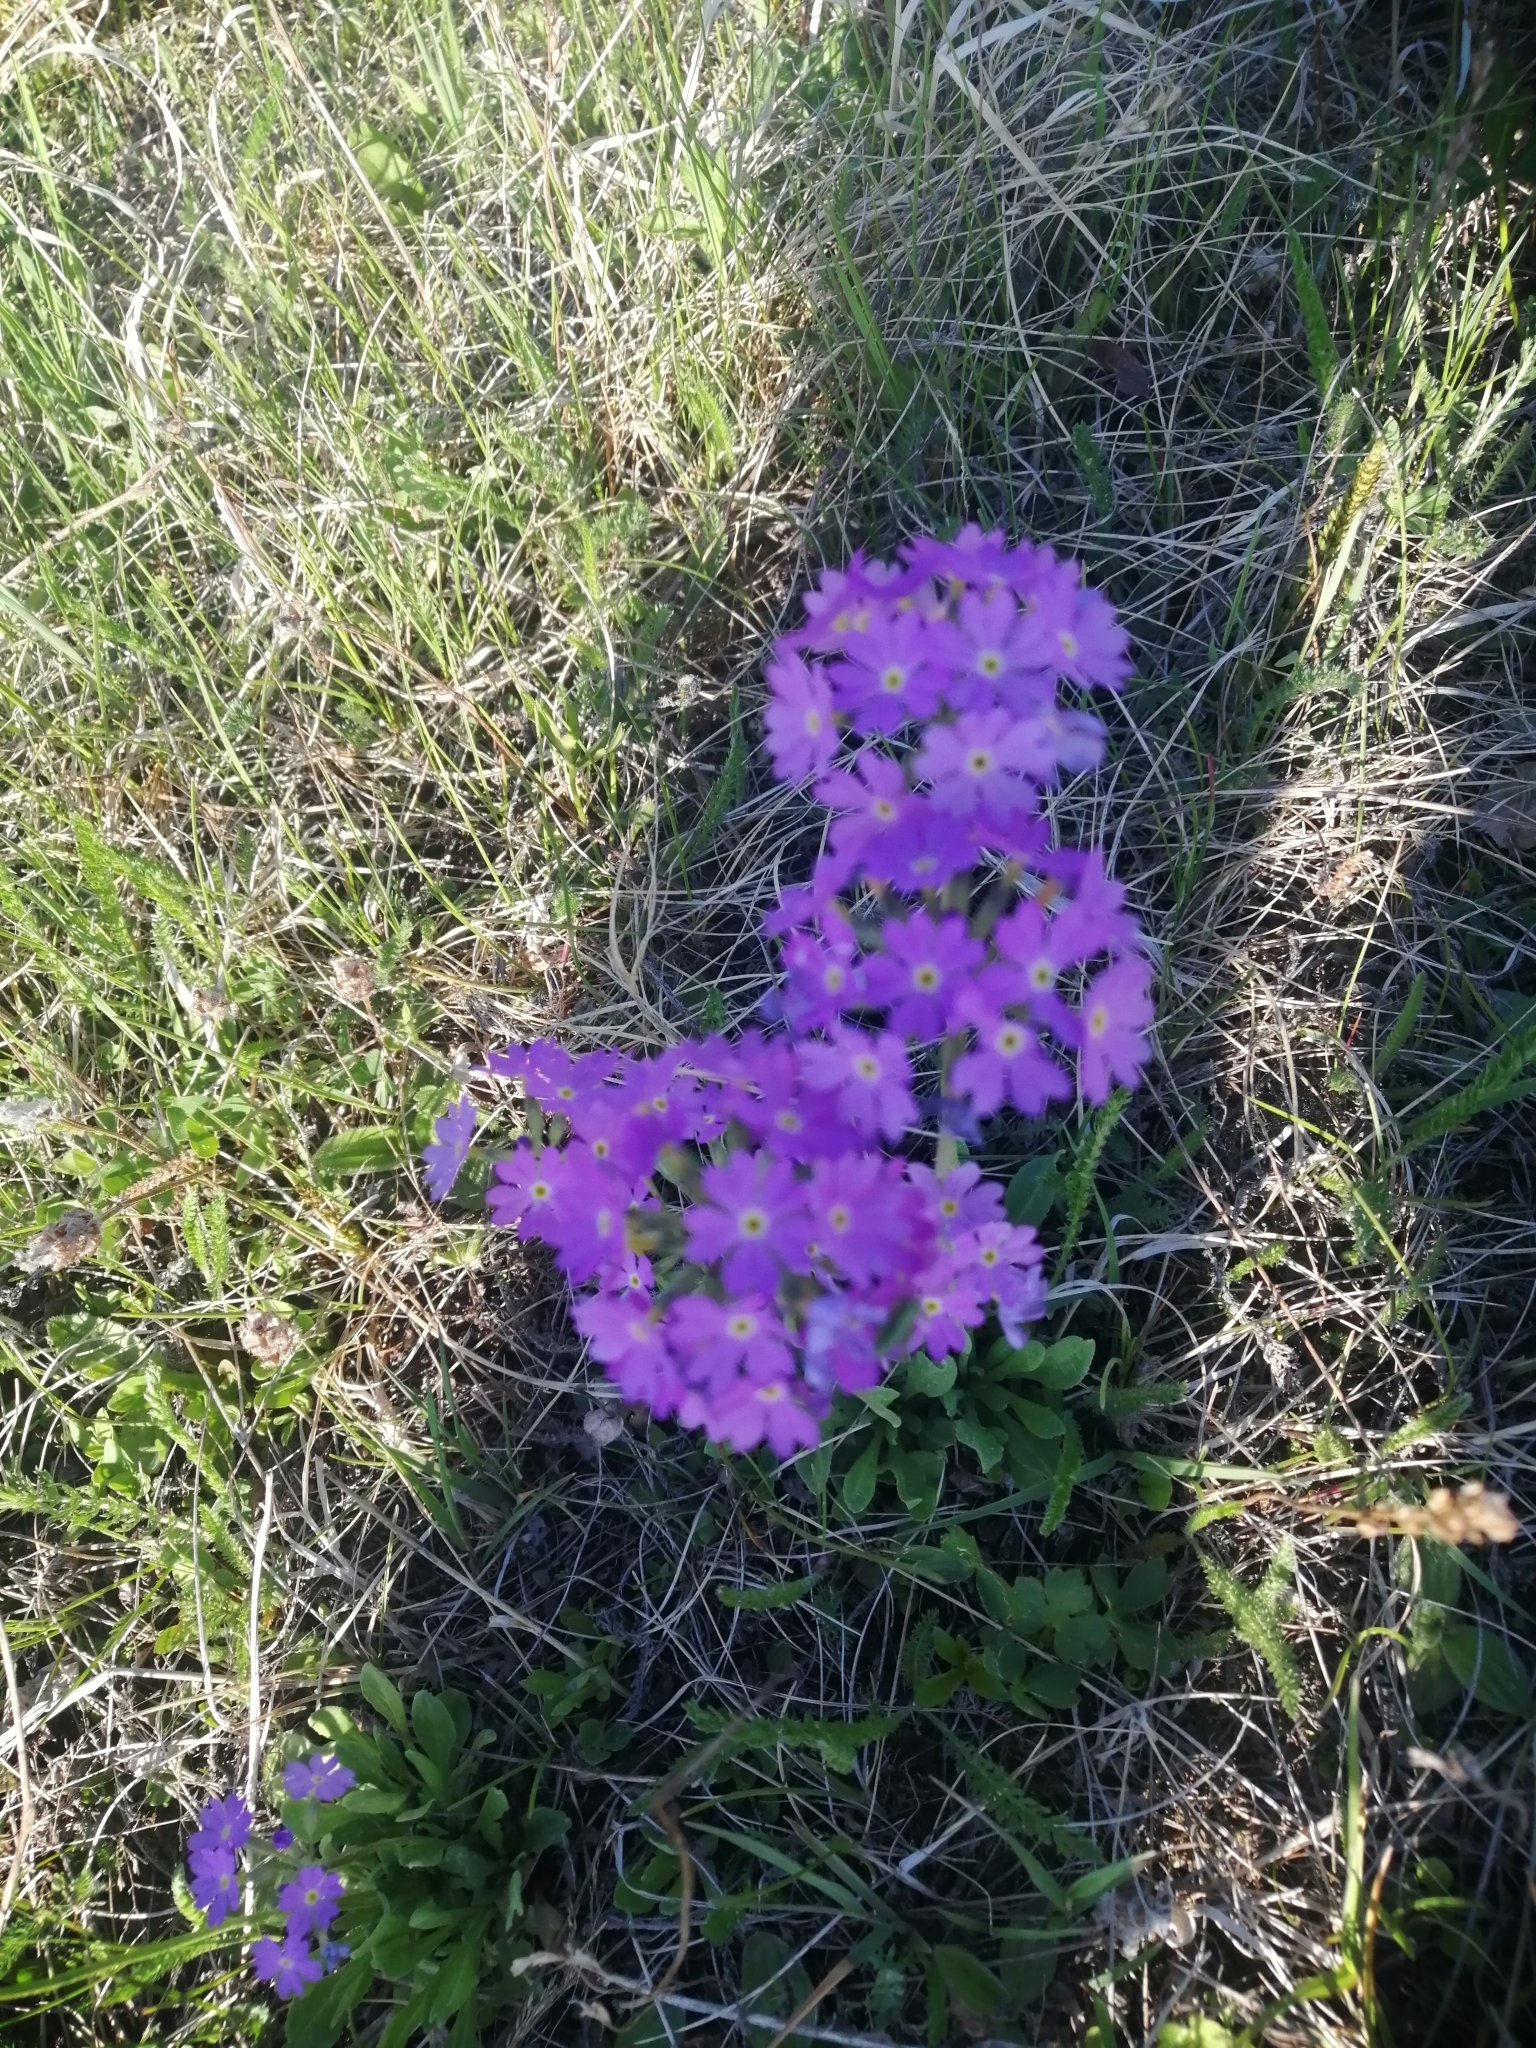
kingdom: Plantae
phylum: Tracheophyta
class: Magnoliopsida
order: Ericales
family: Primulaceae
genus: Primula
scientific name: Primula farinosa
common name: Bird's-eye primrose
